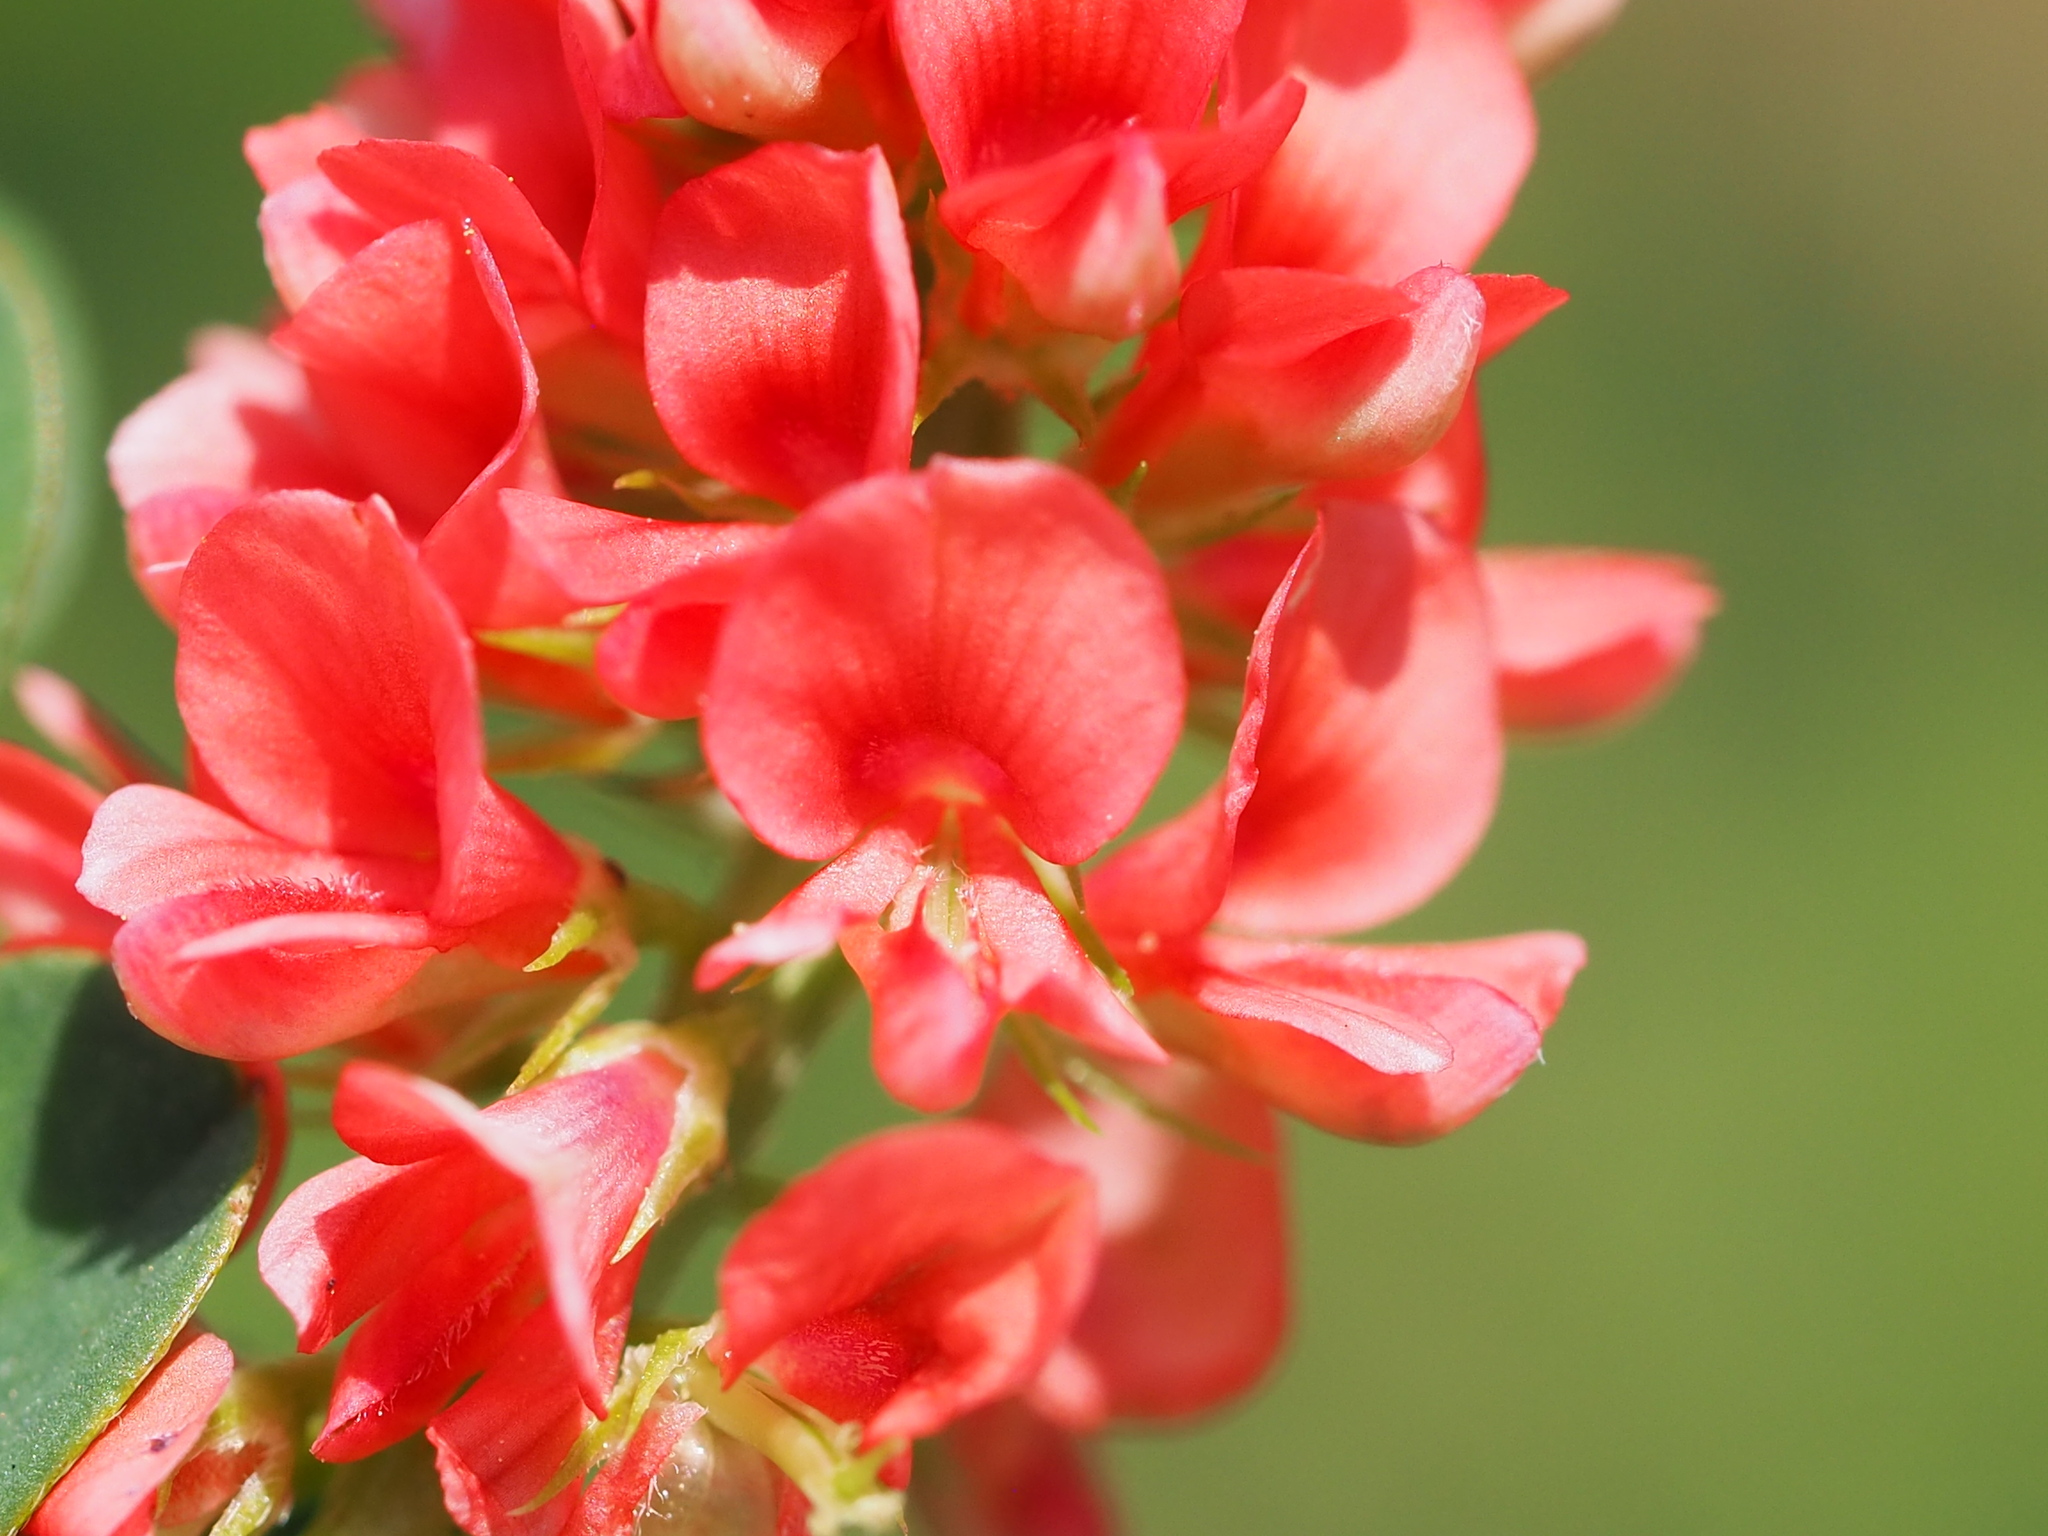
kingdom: Plantae
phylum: Tracheophyta
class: Magnoliopsida
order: Fabales
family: Fabaceae
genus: Indigofera
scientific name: Indigofera spicata
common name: Creeping indigo
